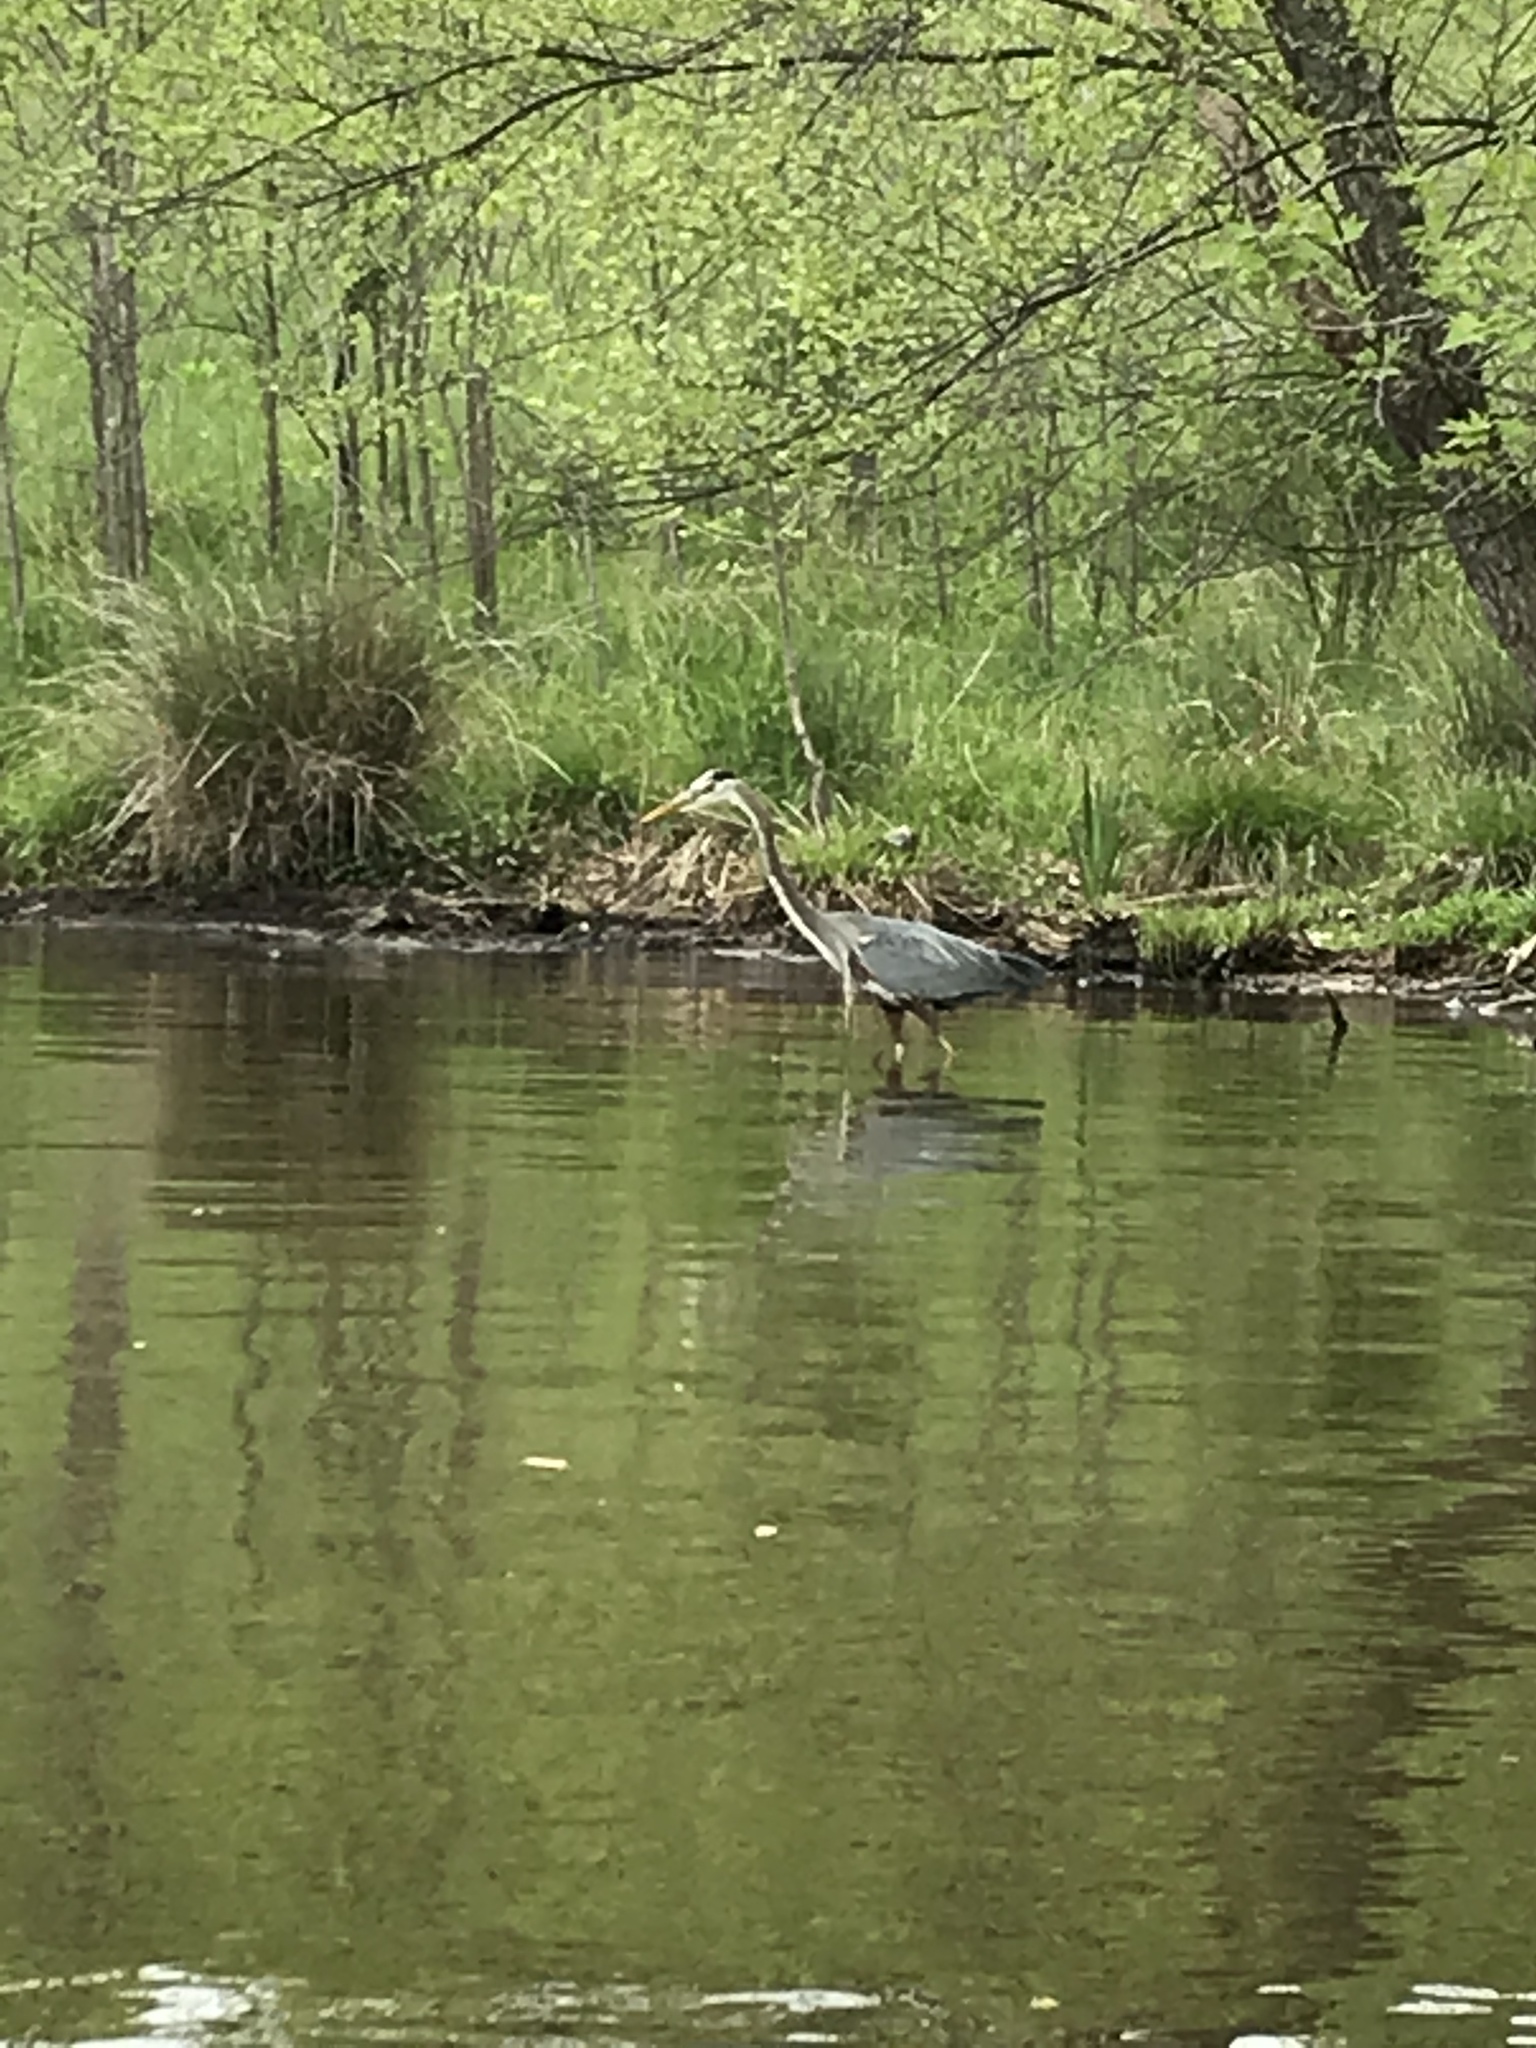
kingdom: Animalia
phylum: Chordata
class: Aves
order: Pelecaniformes
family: Ardeidae
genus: Ardea
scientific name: Ardea herodias
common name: Great blue heron
